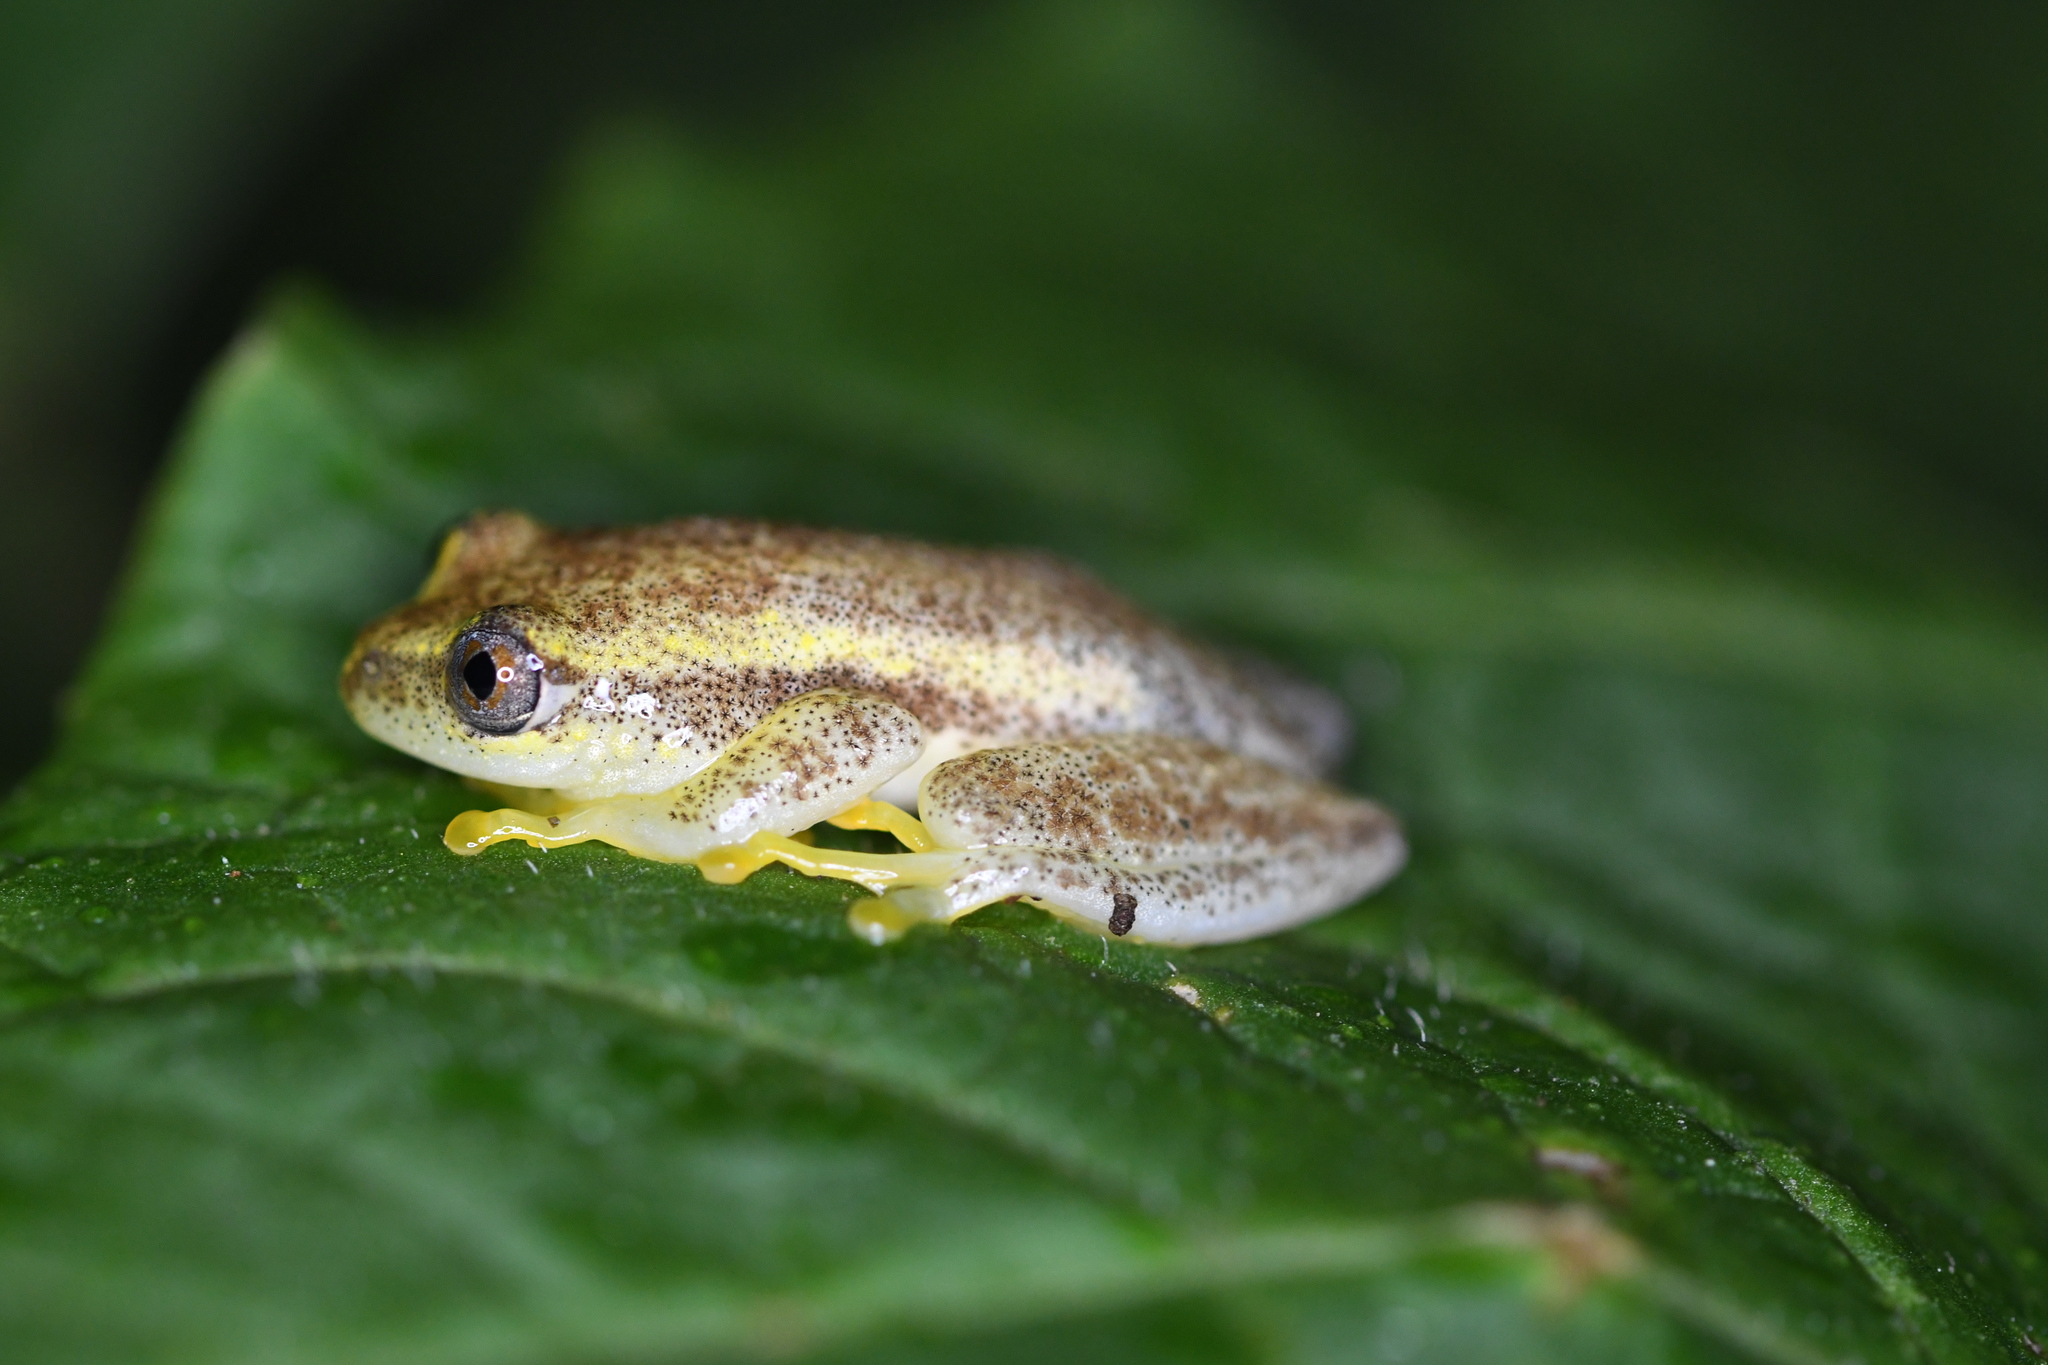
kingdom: Animalia
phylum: Chordata
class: Amphibia
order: Anura
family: Hyperoliidae
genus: Heterixalus
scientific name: Heterixalus betsileo
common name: Betsileo reed frog
